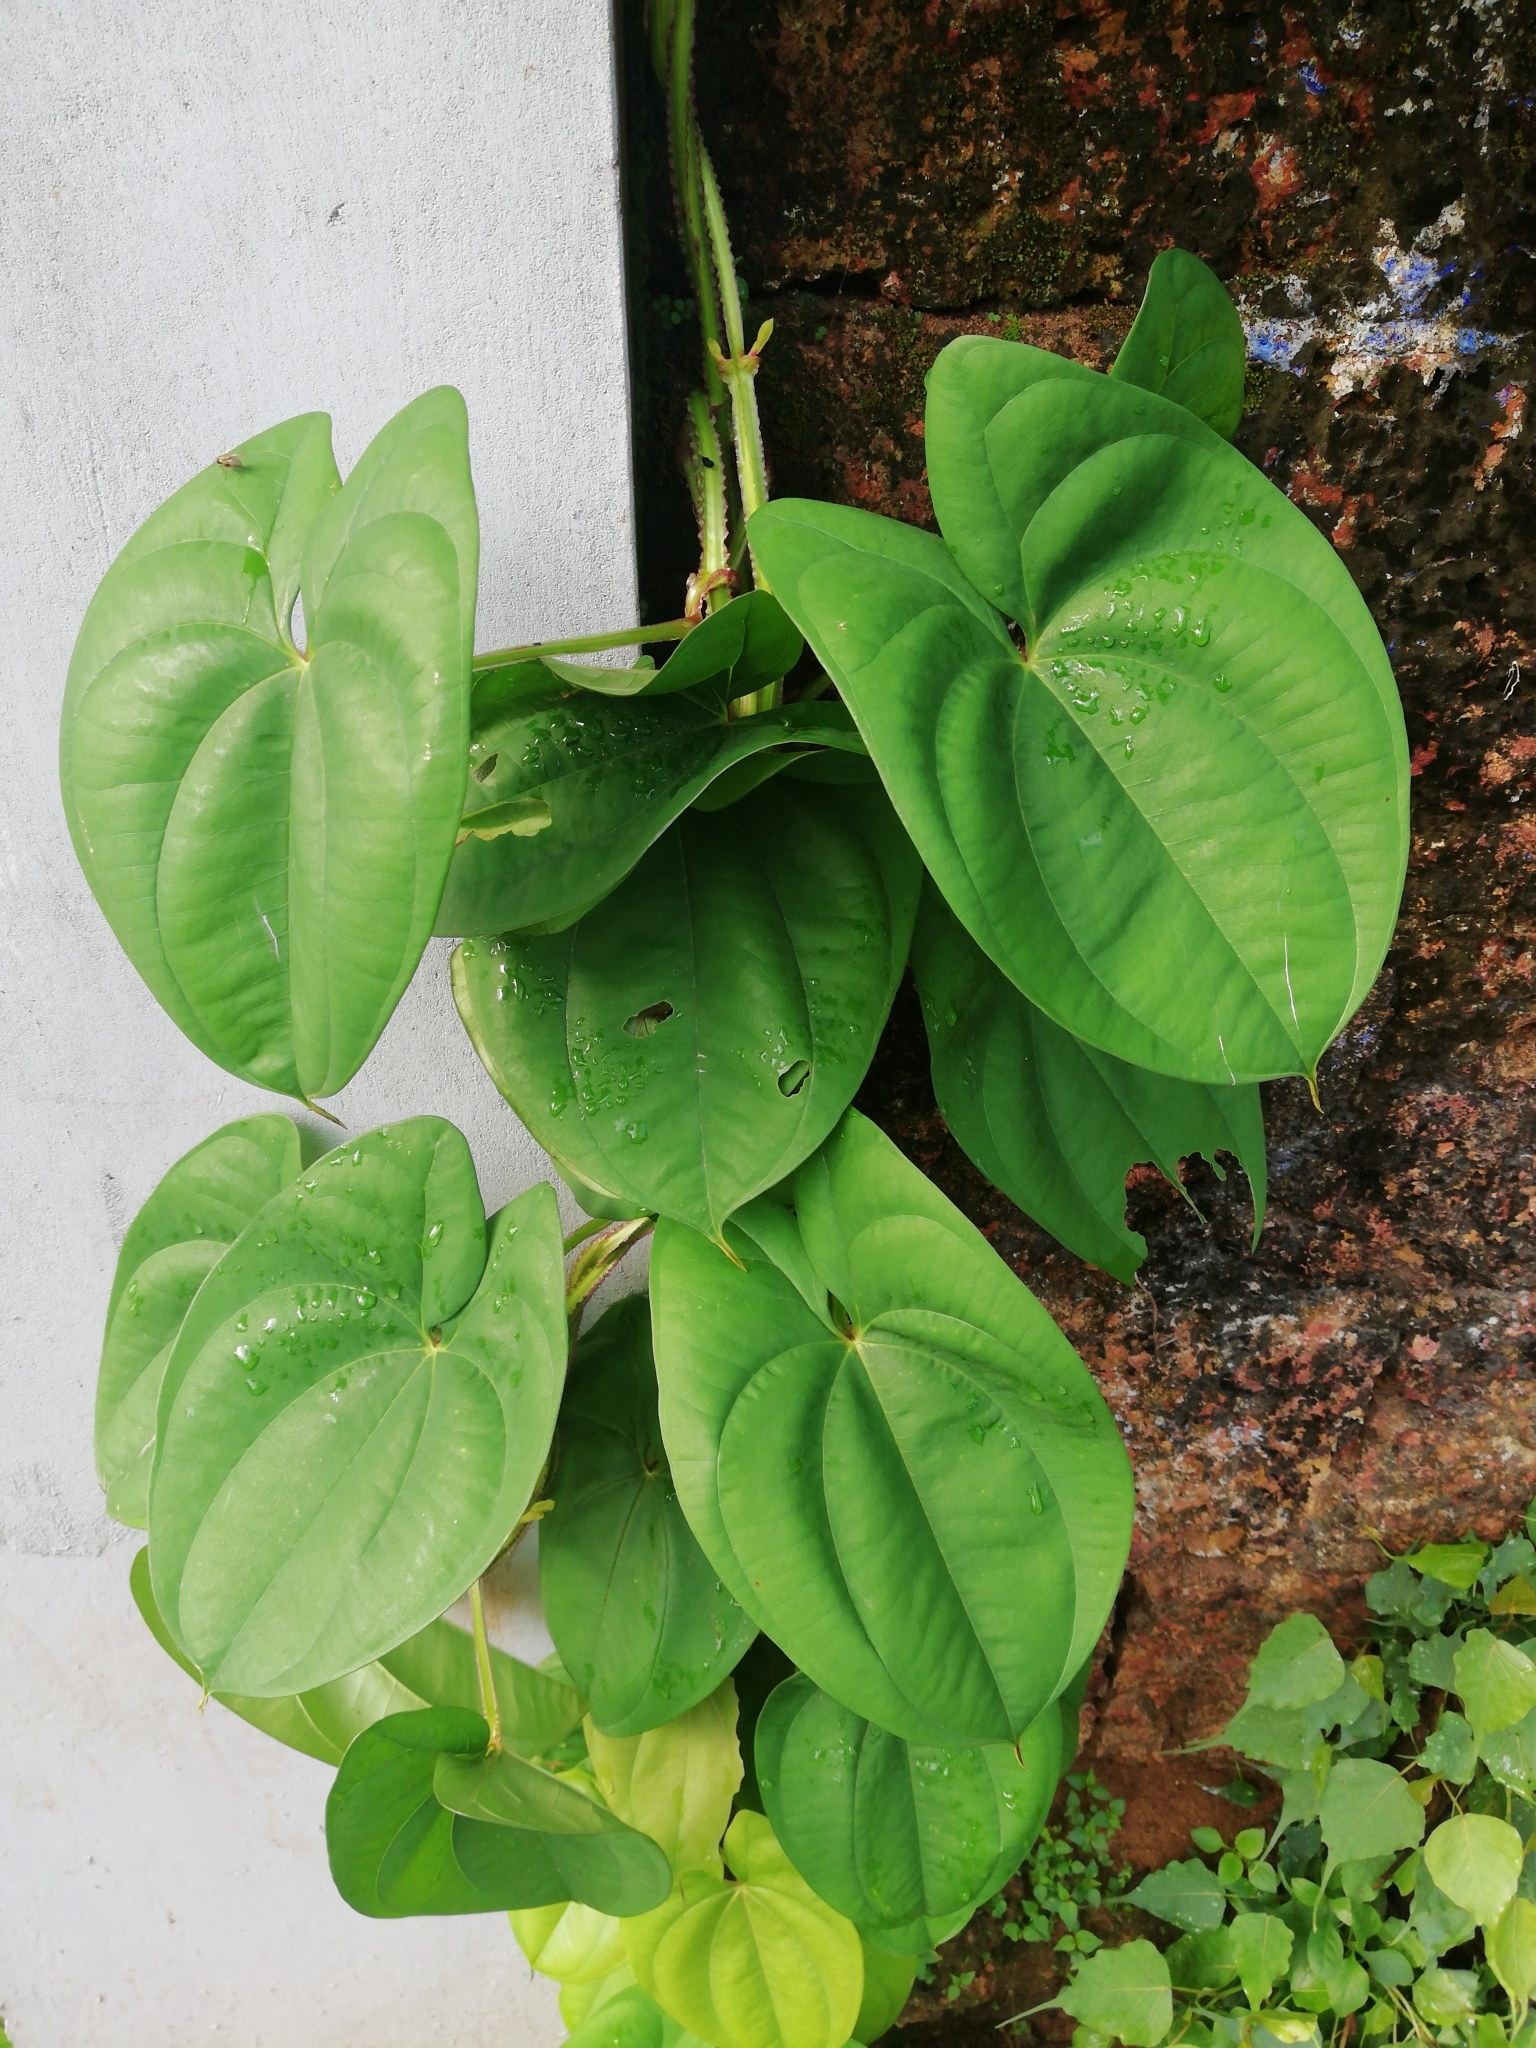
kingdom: Plantae
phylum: Tracheophyta
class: Liliopsida
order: Dioscoreales
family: Dioscoreaceae
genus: Dioscorea
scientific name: Dioscorea alata
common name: Water yam
